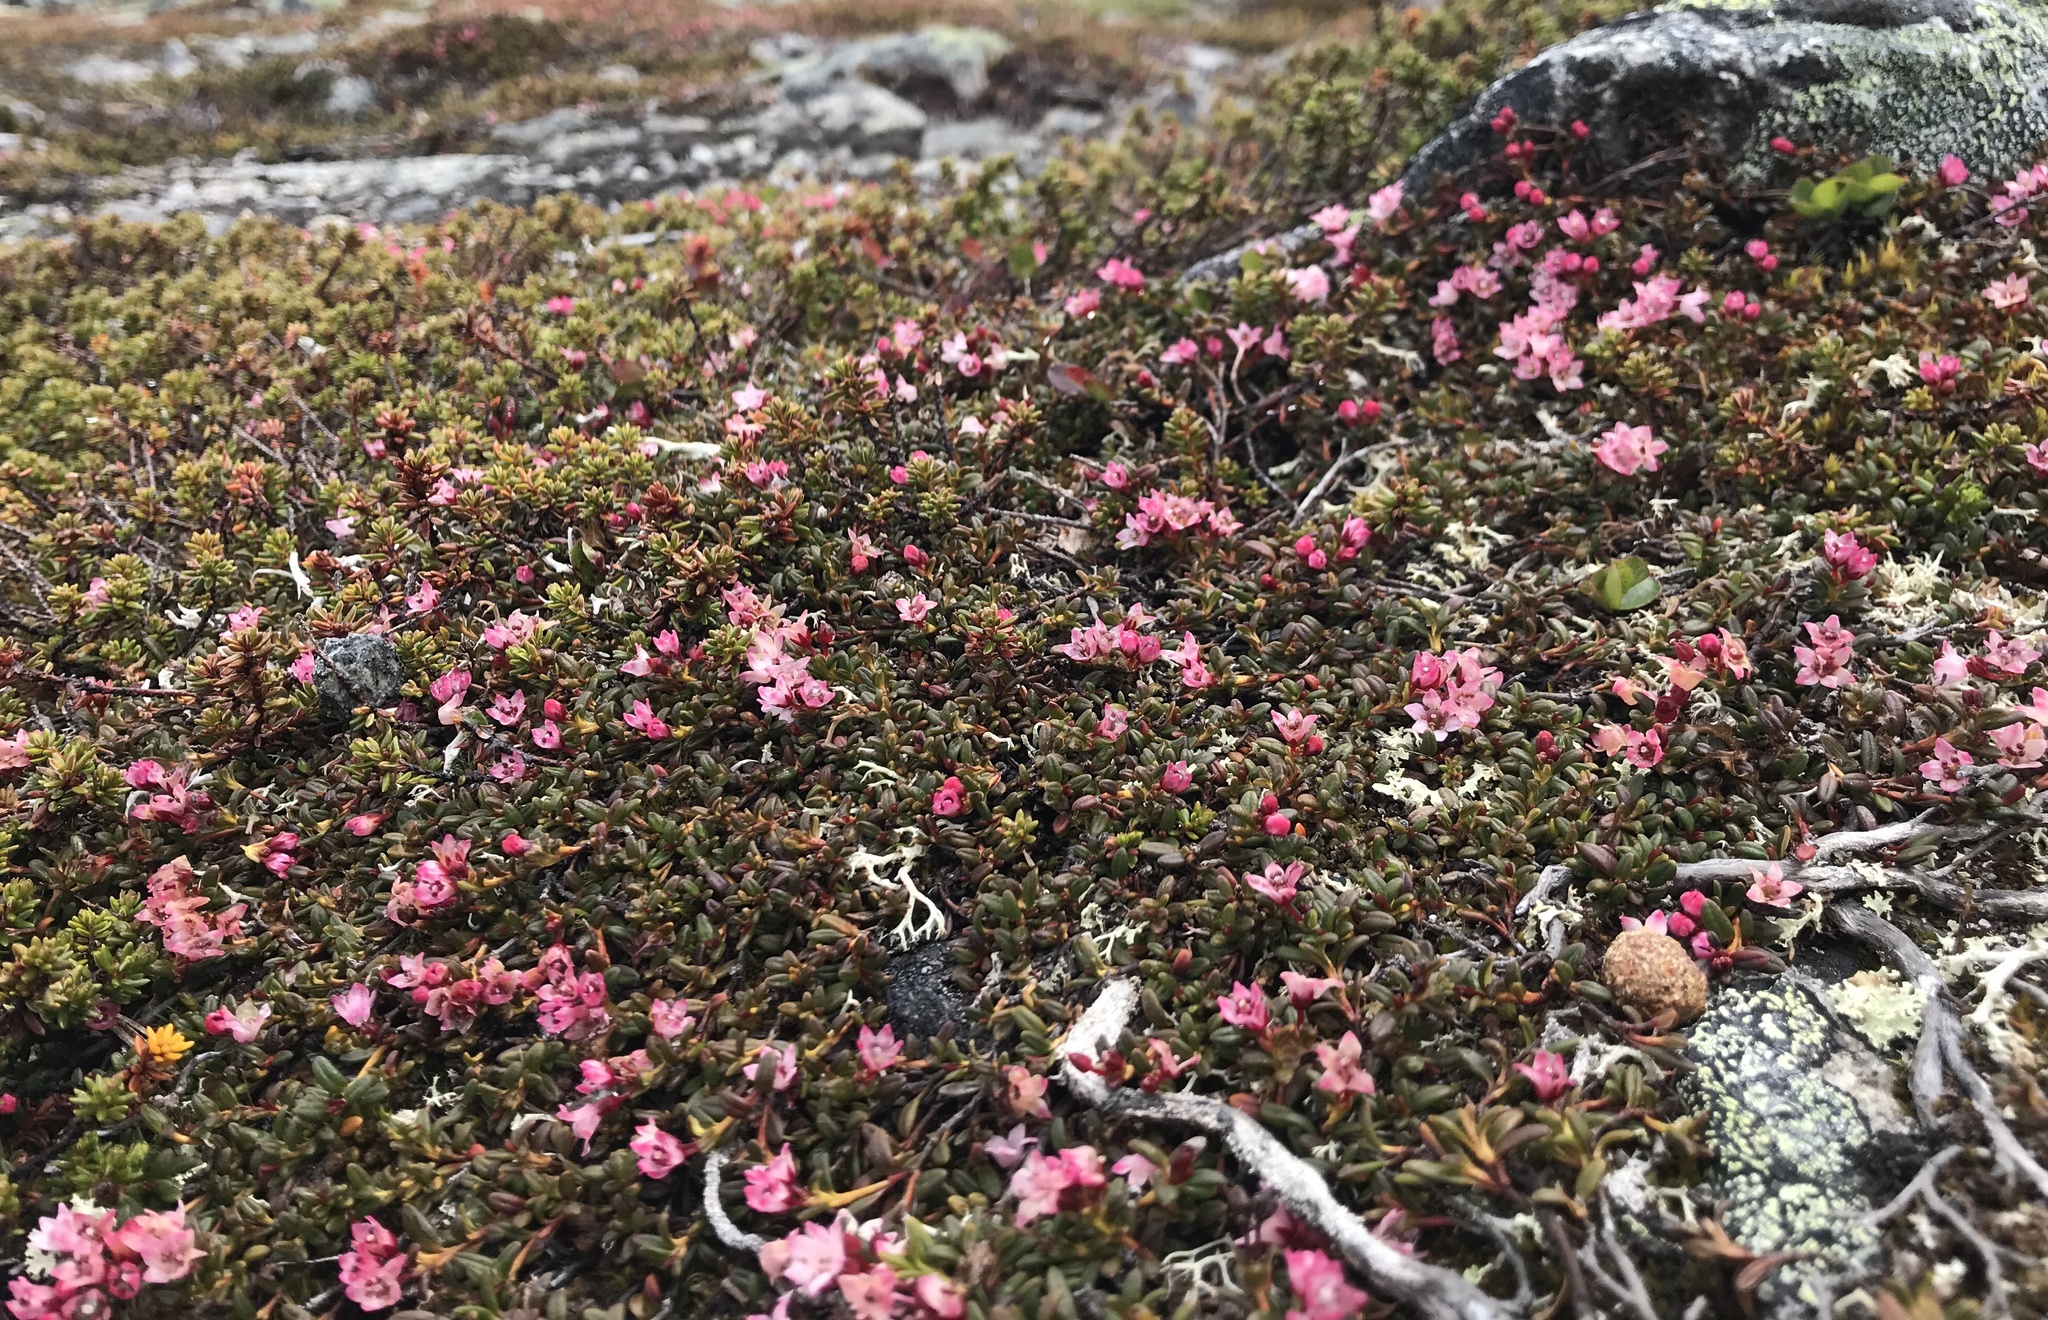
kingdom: Plantae
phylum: Tracheophyta
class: Magnoliopsida
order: Ericales
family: Ericaceae
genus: Kalmia
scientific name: Kalmia procumbens
